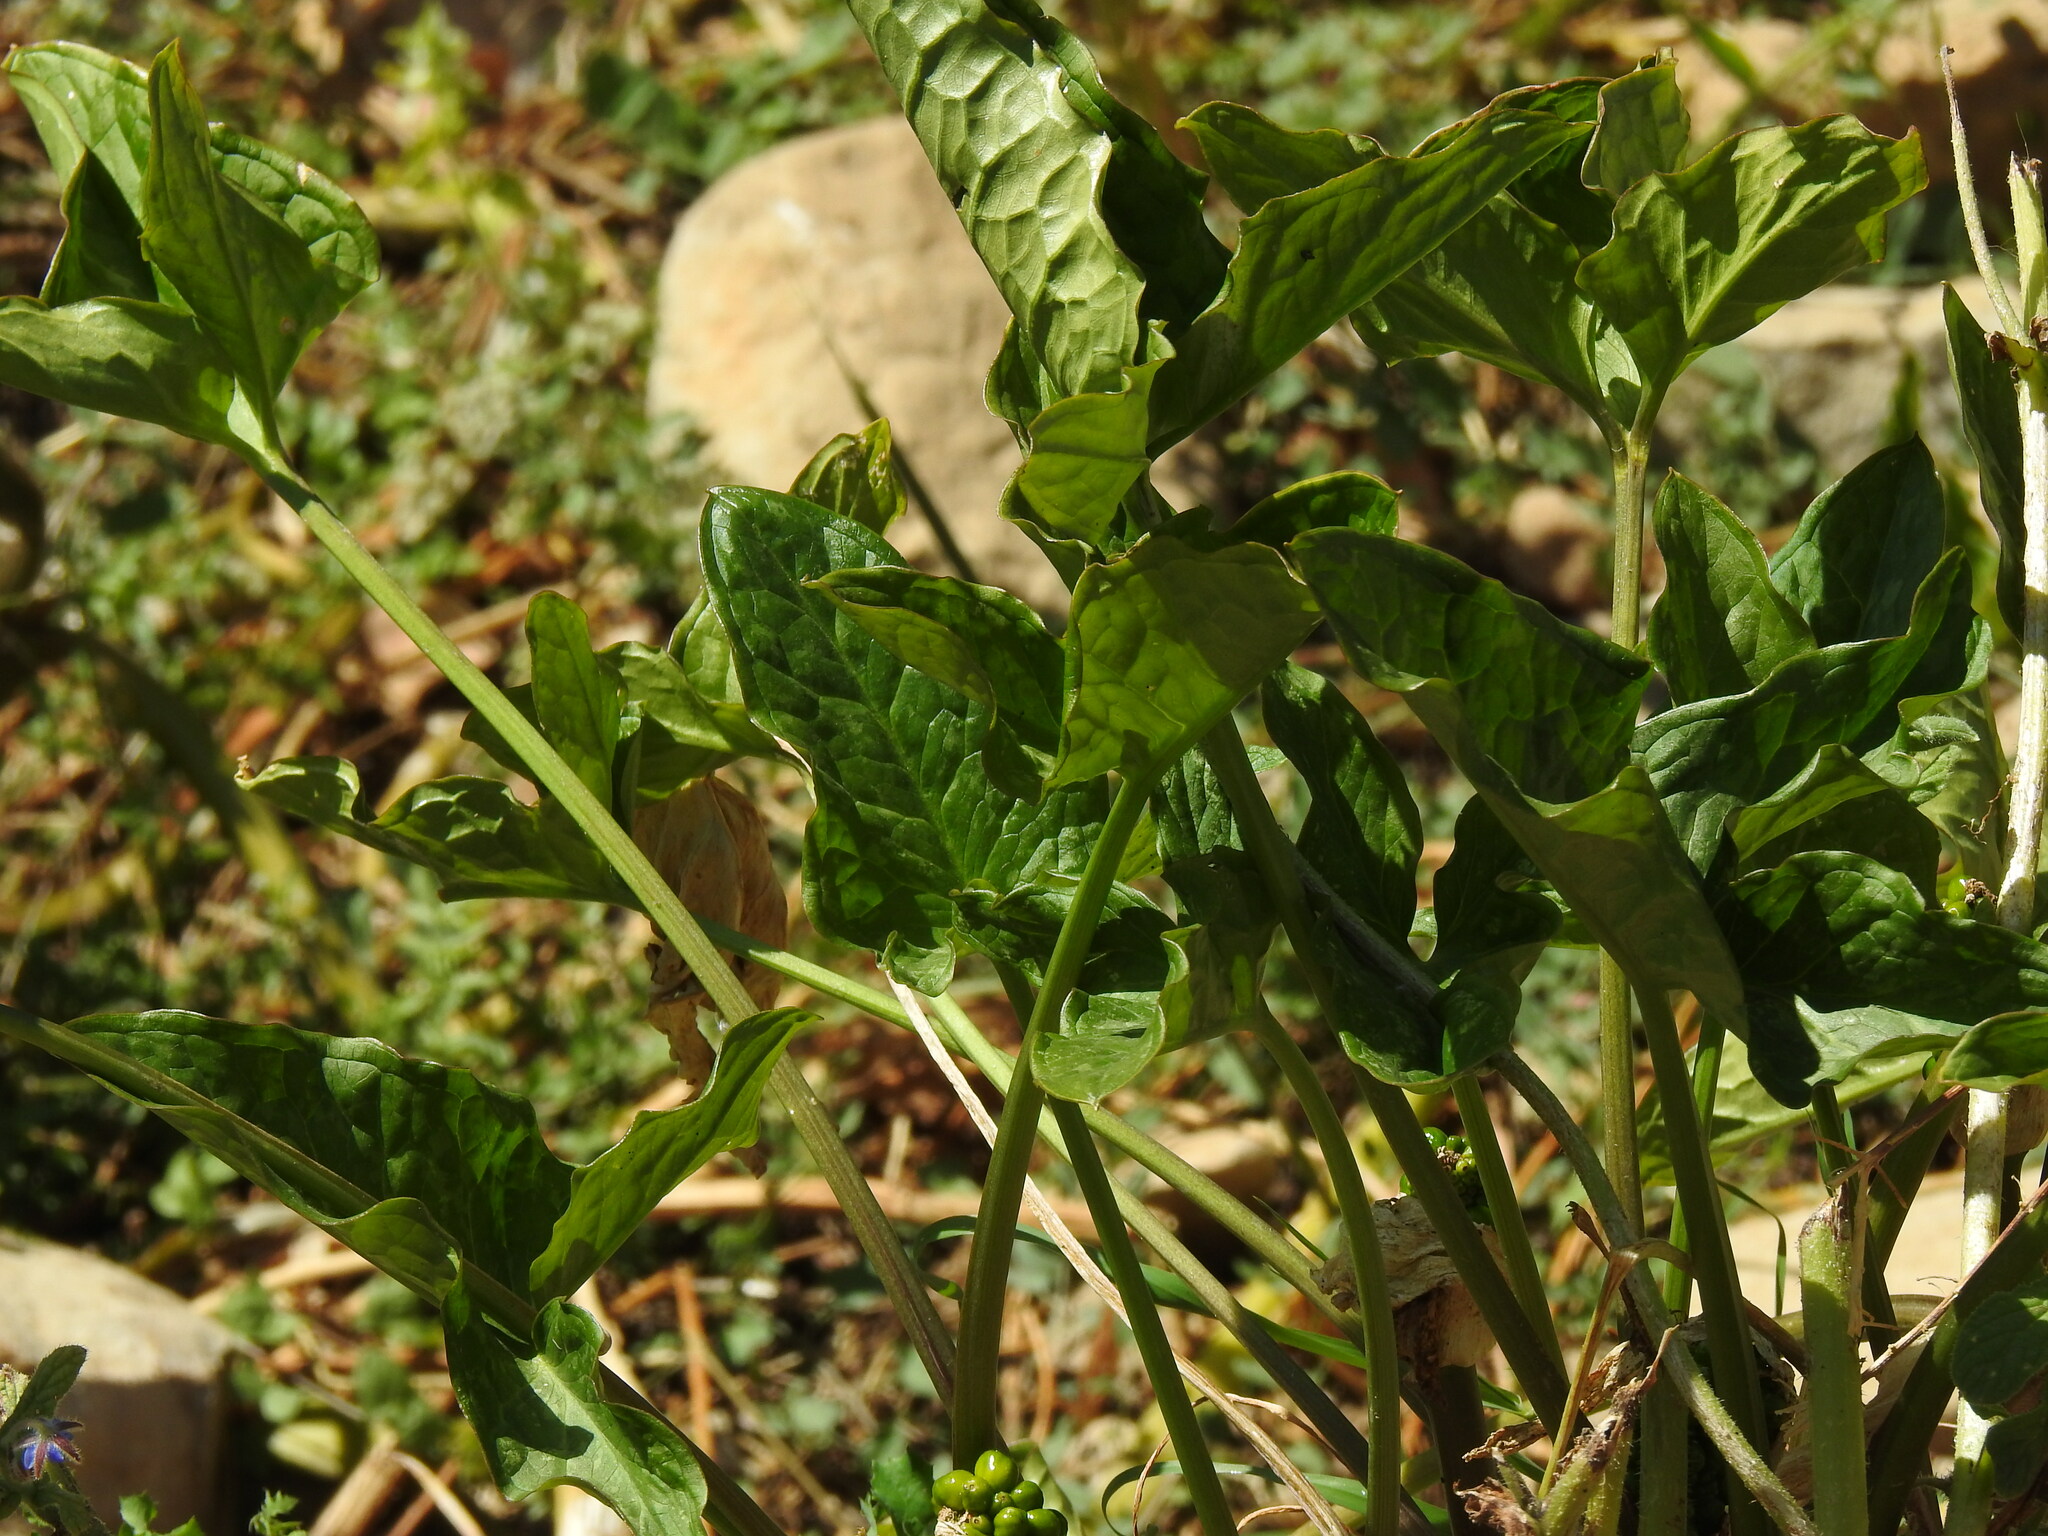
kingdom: Plantae
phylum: Tracheophyta
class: Liliopsida
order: Alismatales
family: Araceae
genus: Arum
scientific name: Arum italicum
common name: Italian lords-and-ladies
